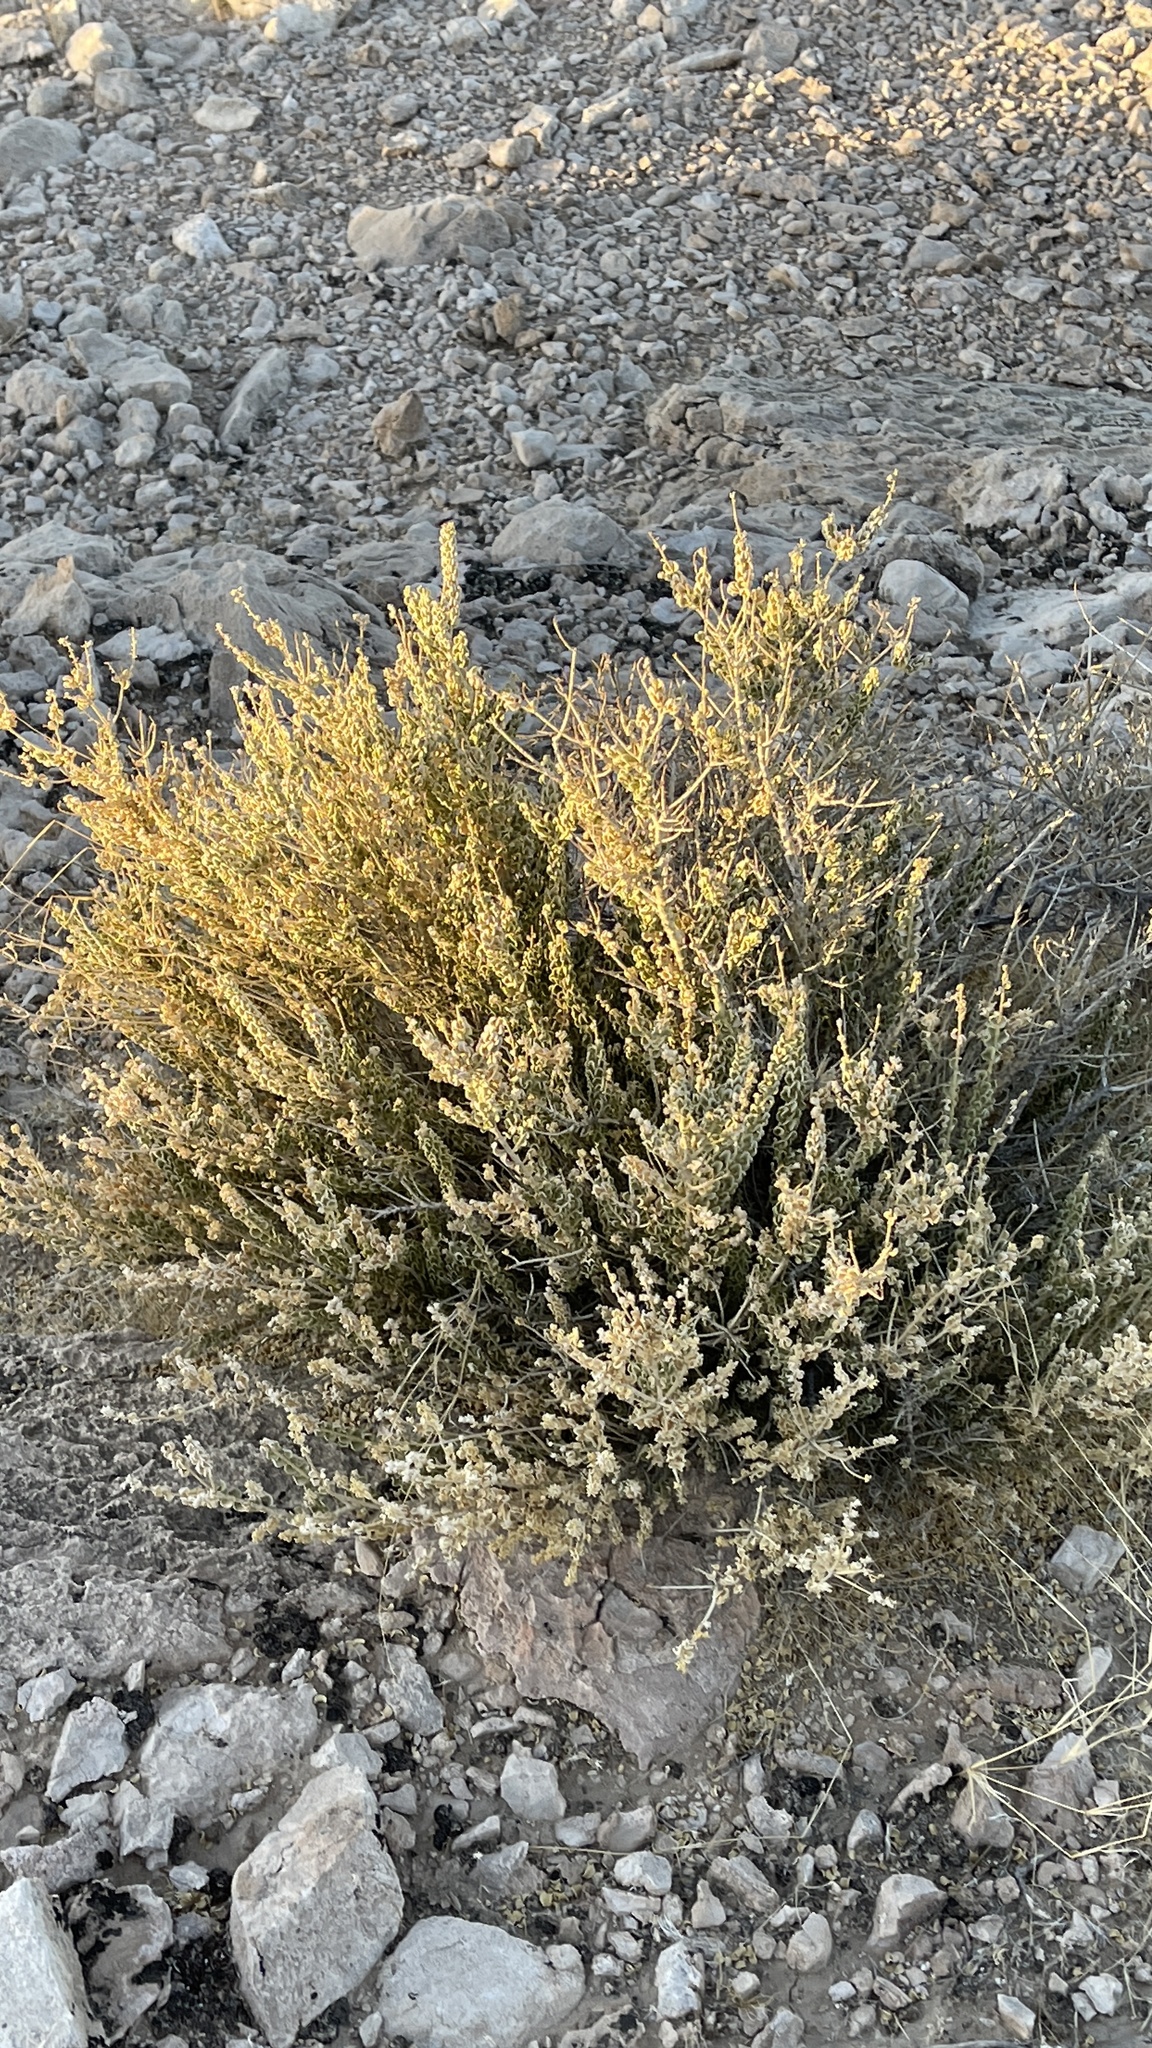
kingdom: Plantae
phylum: Tracheophyta
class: Magnoliopsida
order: Celastrales
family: Celastraceae
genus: Mortonia
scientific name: Mortonia utahensis
